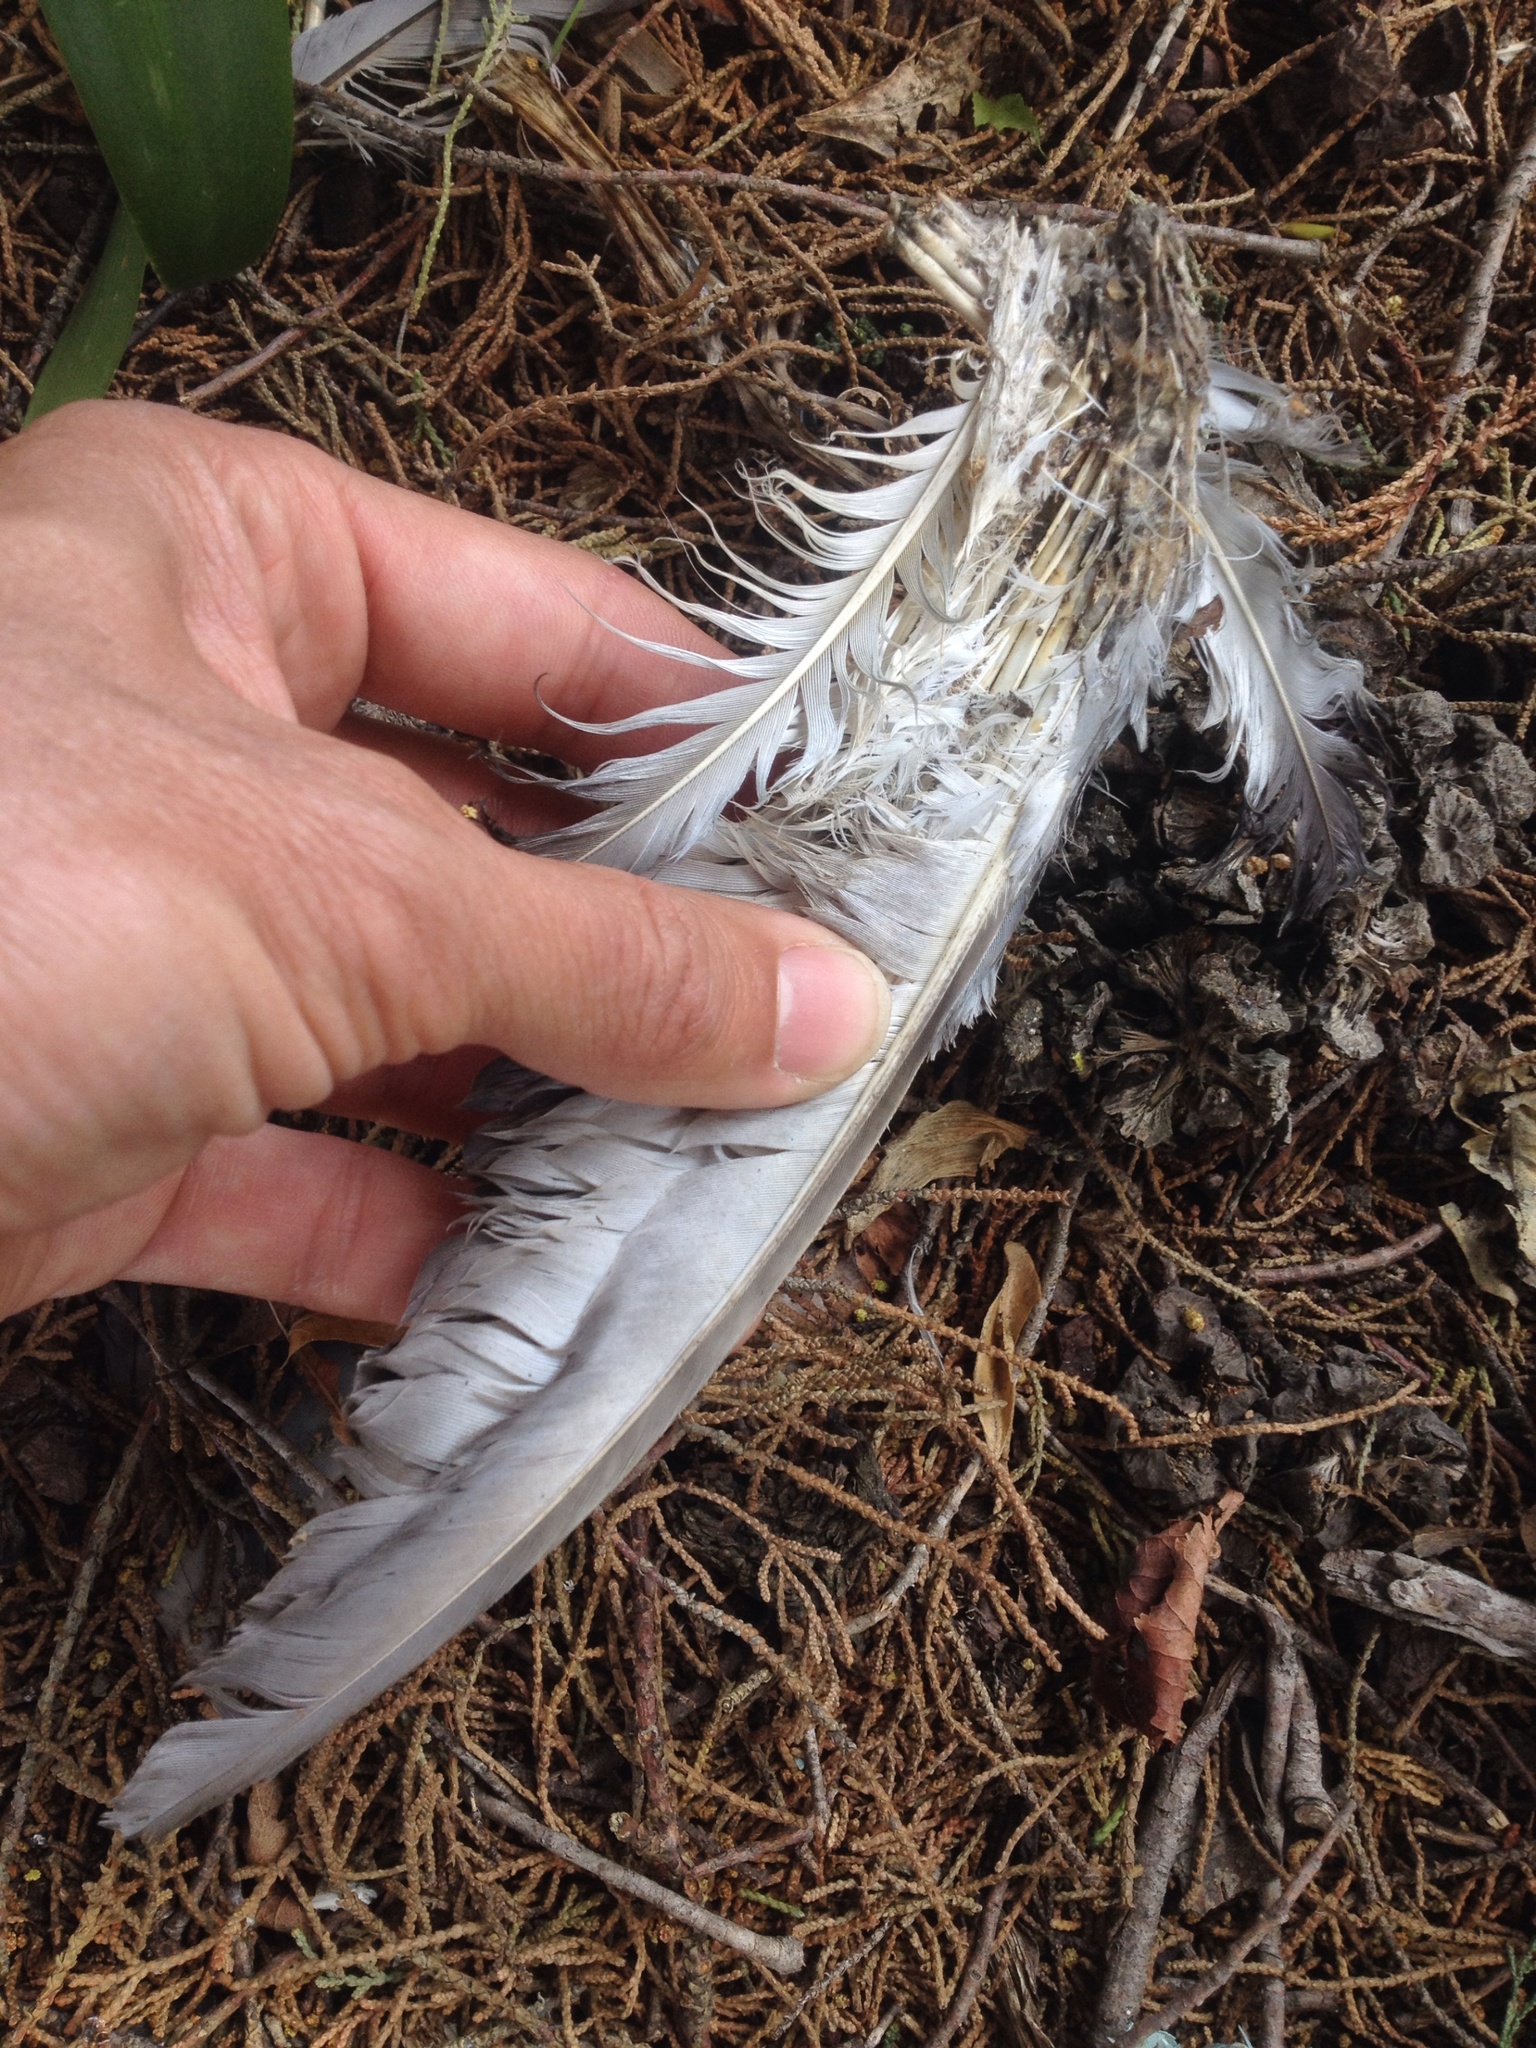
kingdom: Animalia
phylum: Chordata
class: Aves
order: Columbiformes
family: Columbidae
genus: Columba
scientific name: Columba livia
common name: Rock pigeon
